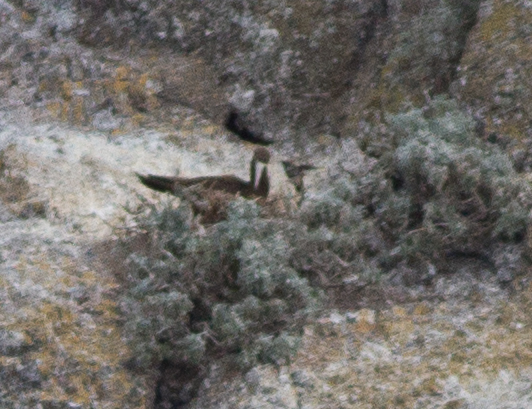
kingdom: Animalia
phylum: Chordata
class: Aves
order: Suliformes
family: Sulidae
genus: Sula
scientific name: Sula leucogaster
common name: Brown booby
